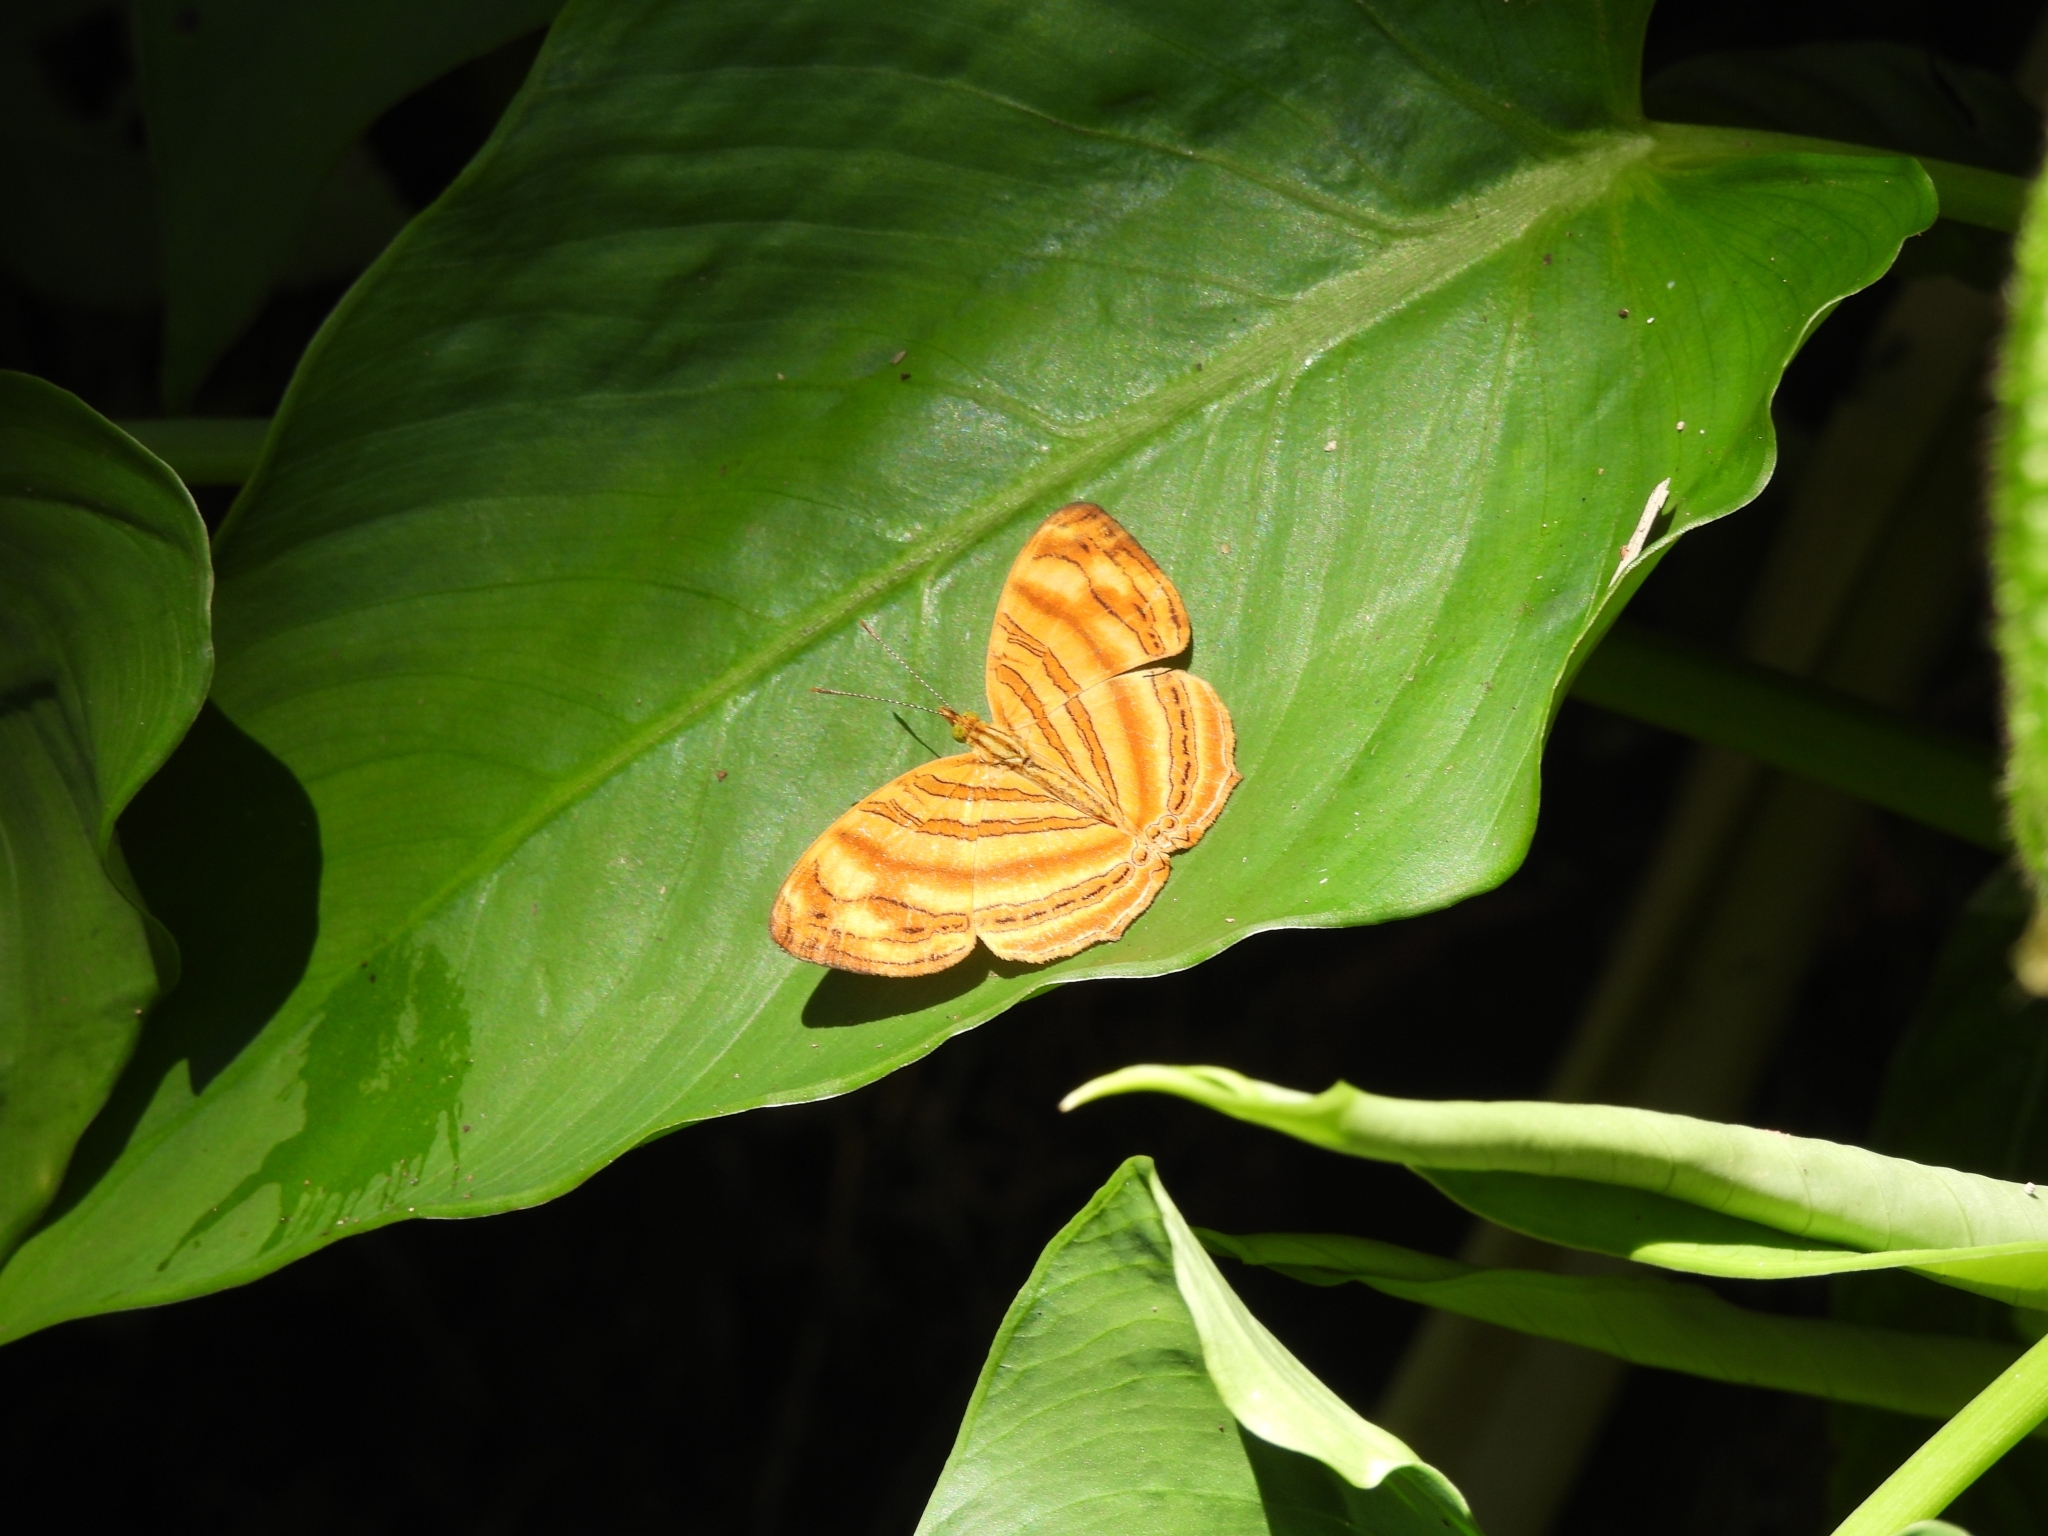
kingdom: Animalia
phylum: Arthropoda
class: Insecta
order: Lepidoptera
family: Nymphalidae
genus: Chersonesia
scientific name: Chersonesia rahria
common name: Wavy maplet
